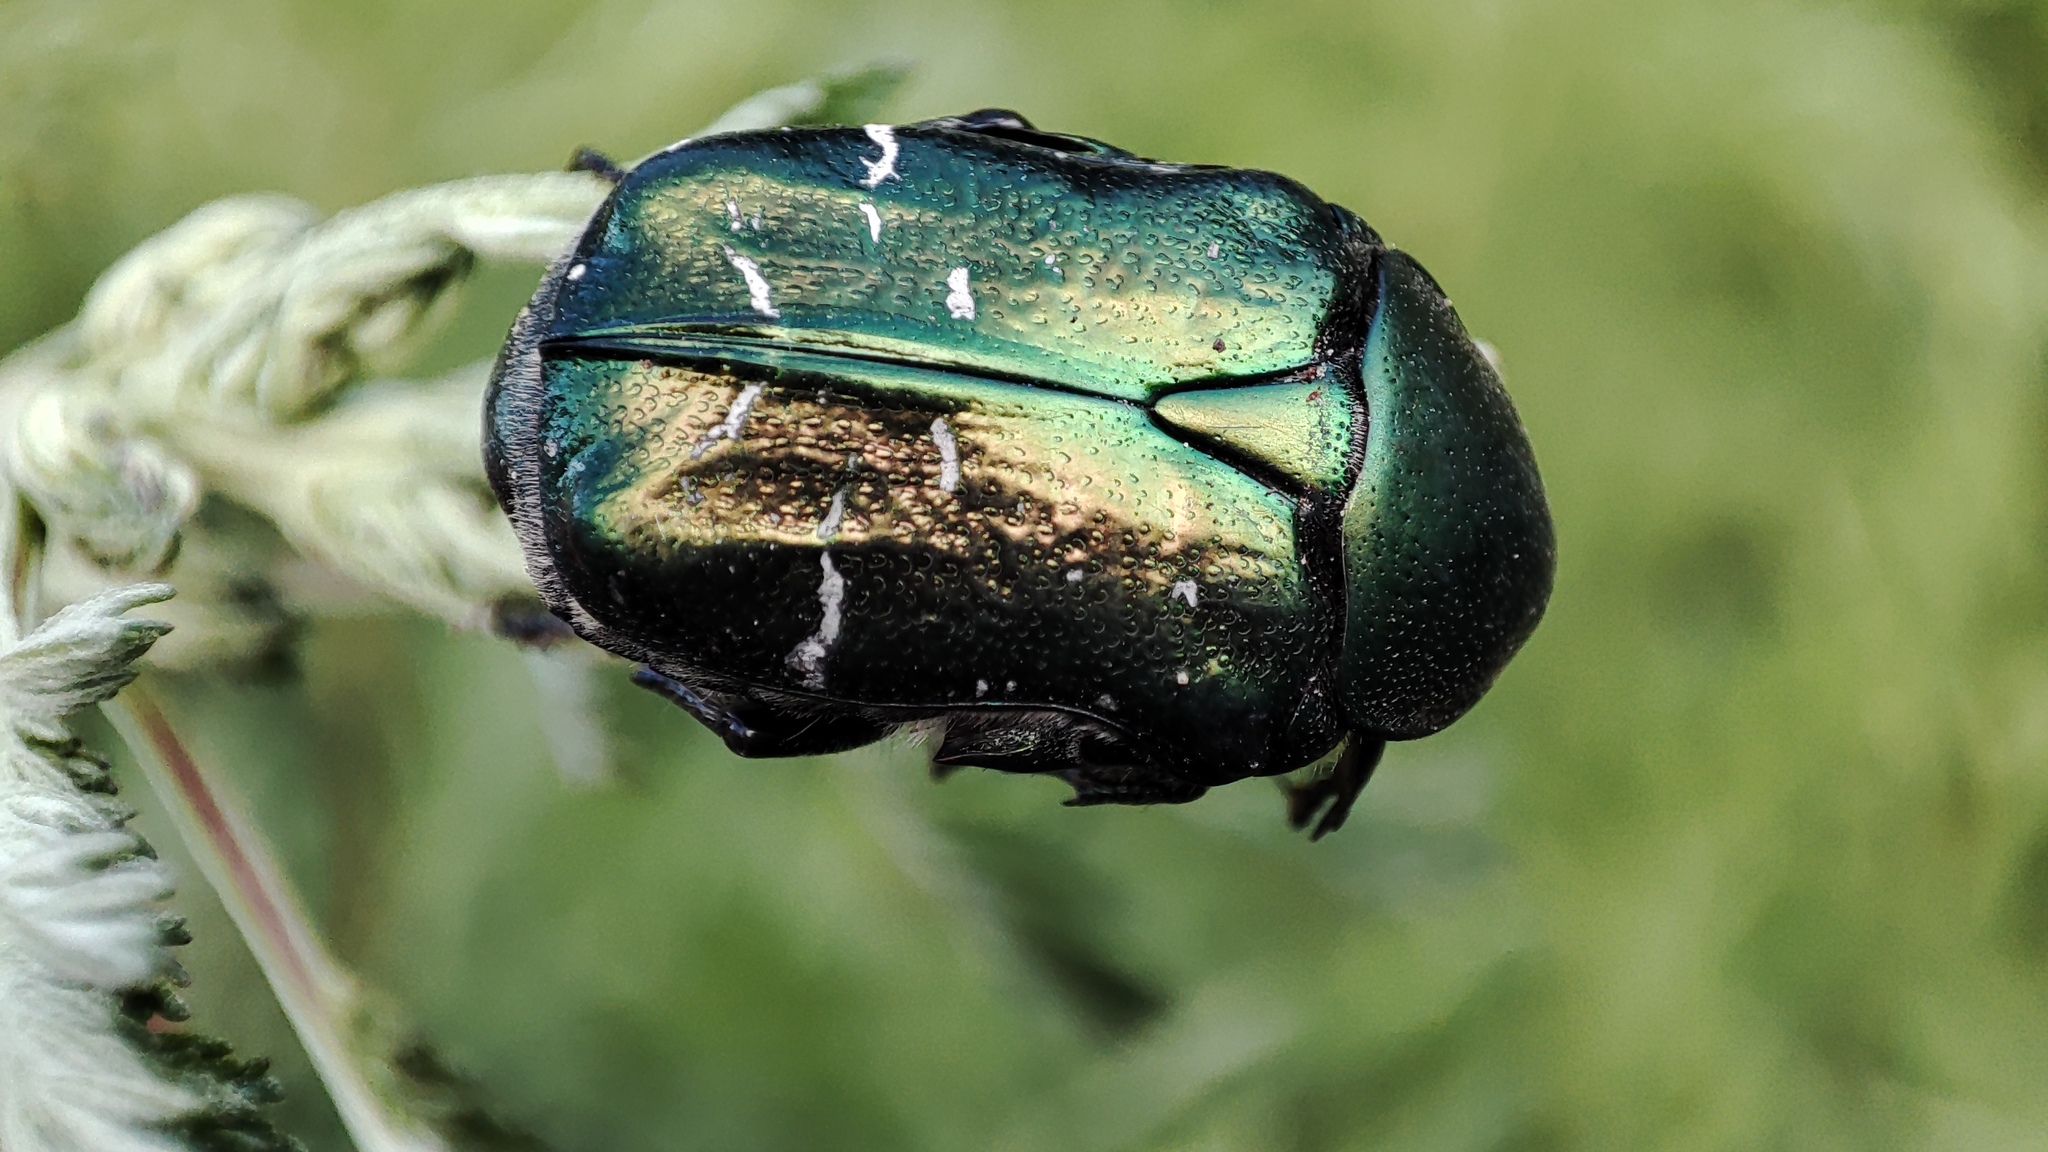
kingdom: Animalia
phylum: Arthropoda
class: Insecta
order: Coleoptera
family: Scarabaeidae
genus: Cetonia
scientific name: Cetonia aurata
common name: Rose chafer
